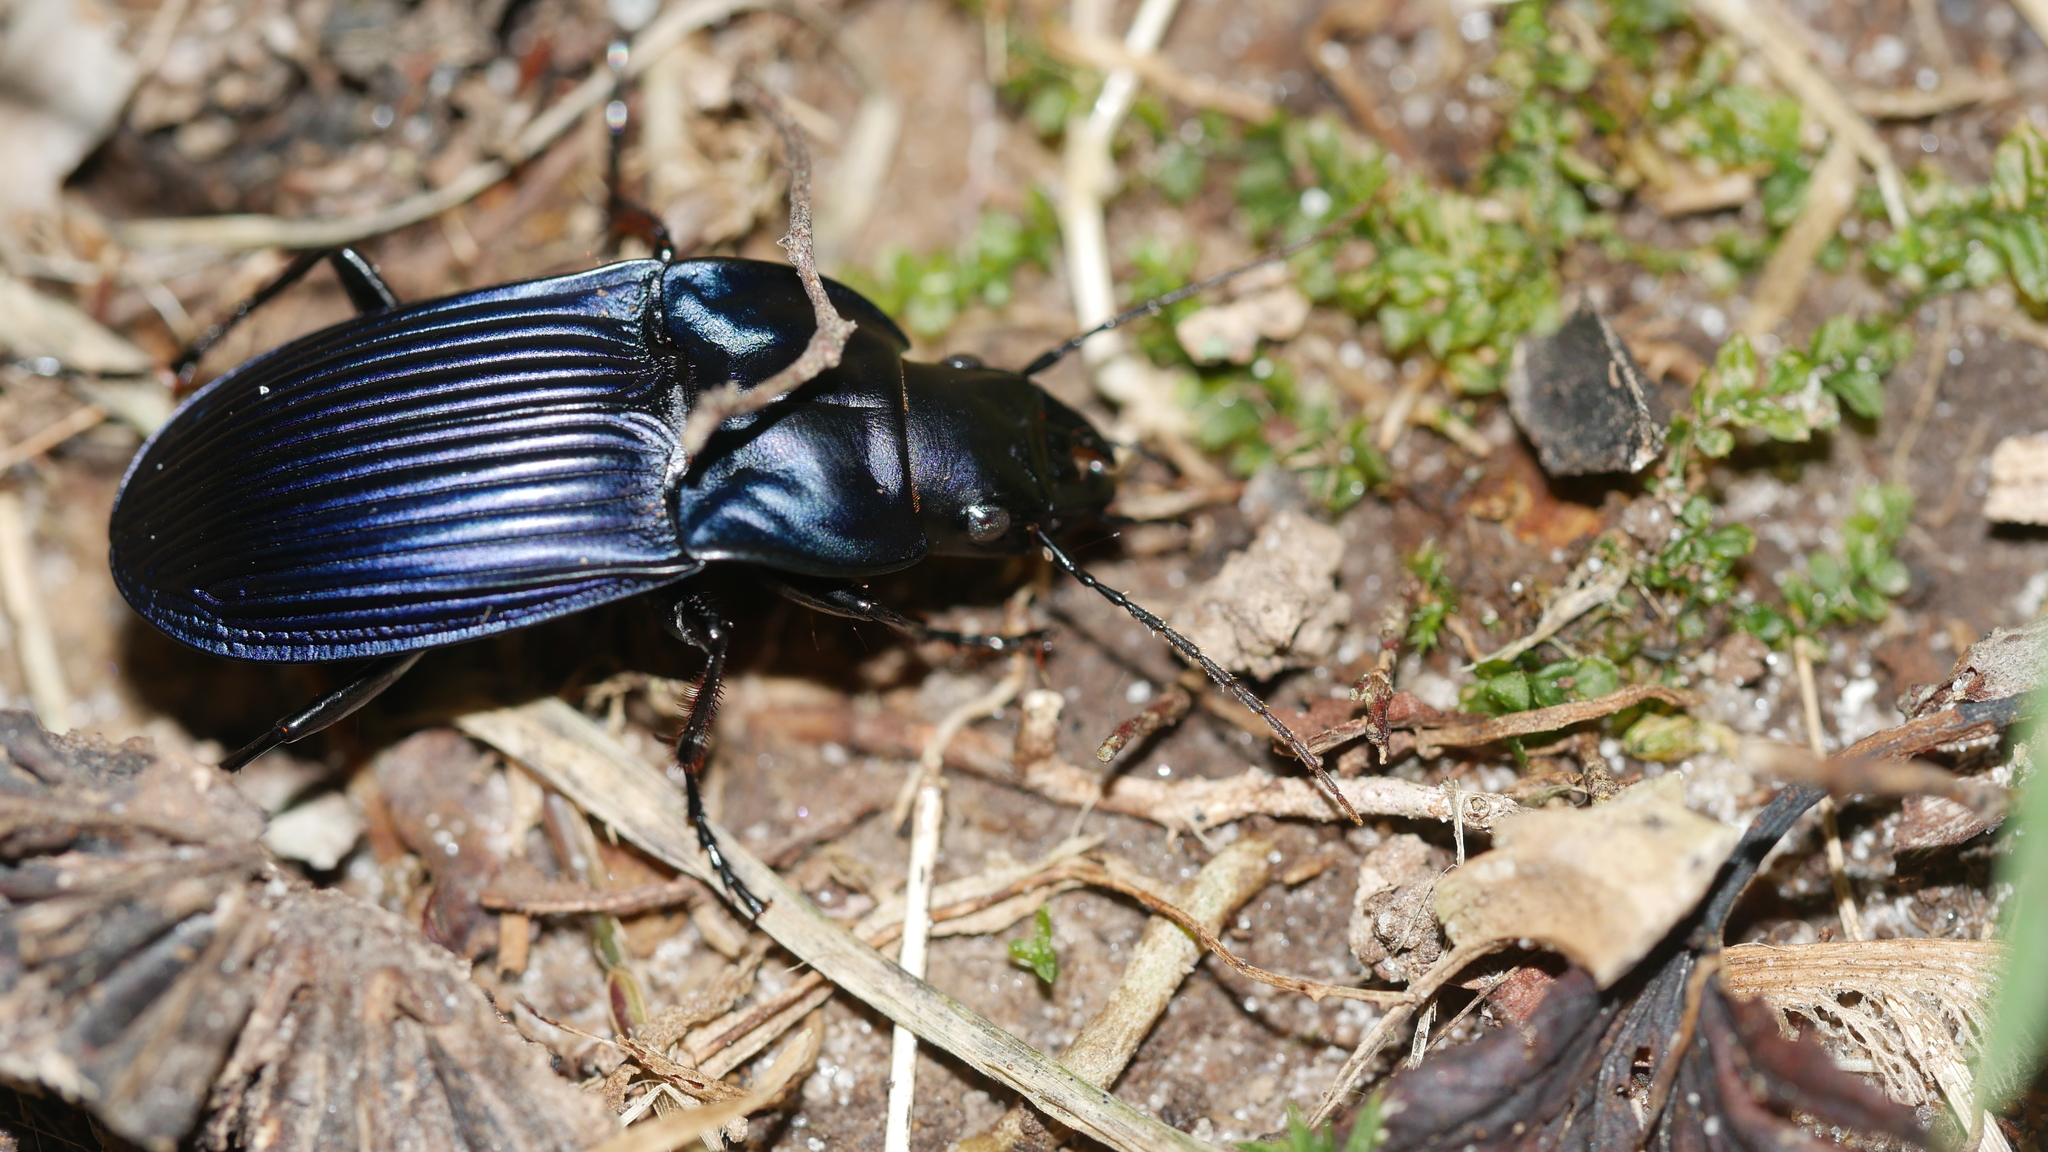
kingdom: Animalia
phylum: Arthropoda
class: Insecta
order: Coleoptera
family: Carabidae
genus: Dicaelus
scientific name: Dicaelus purpuratus
